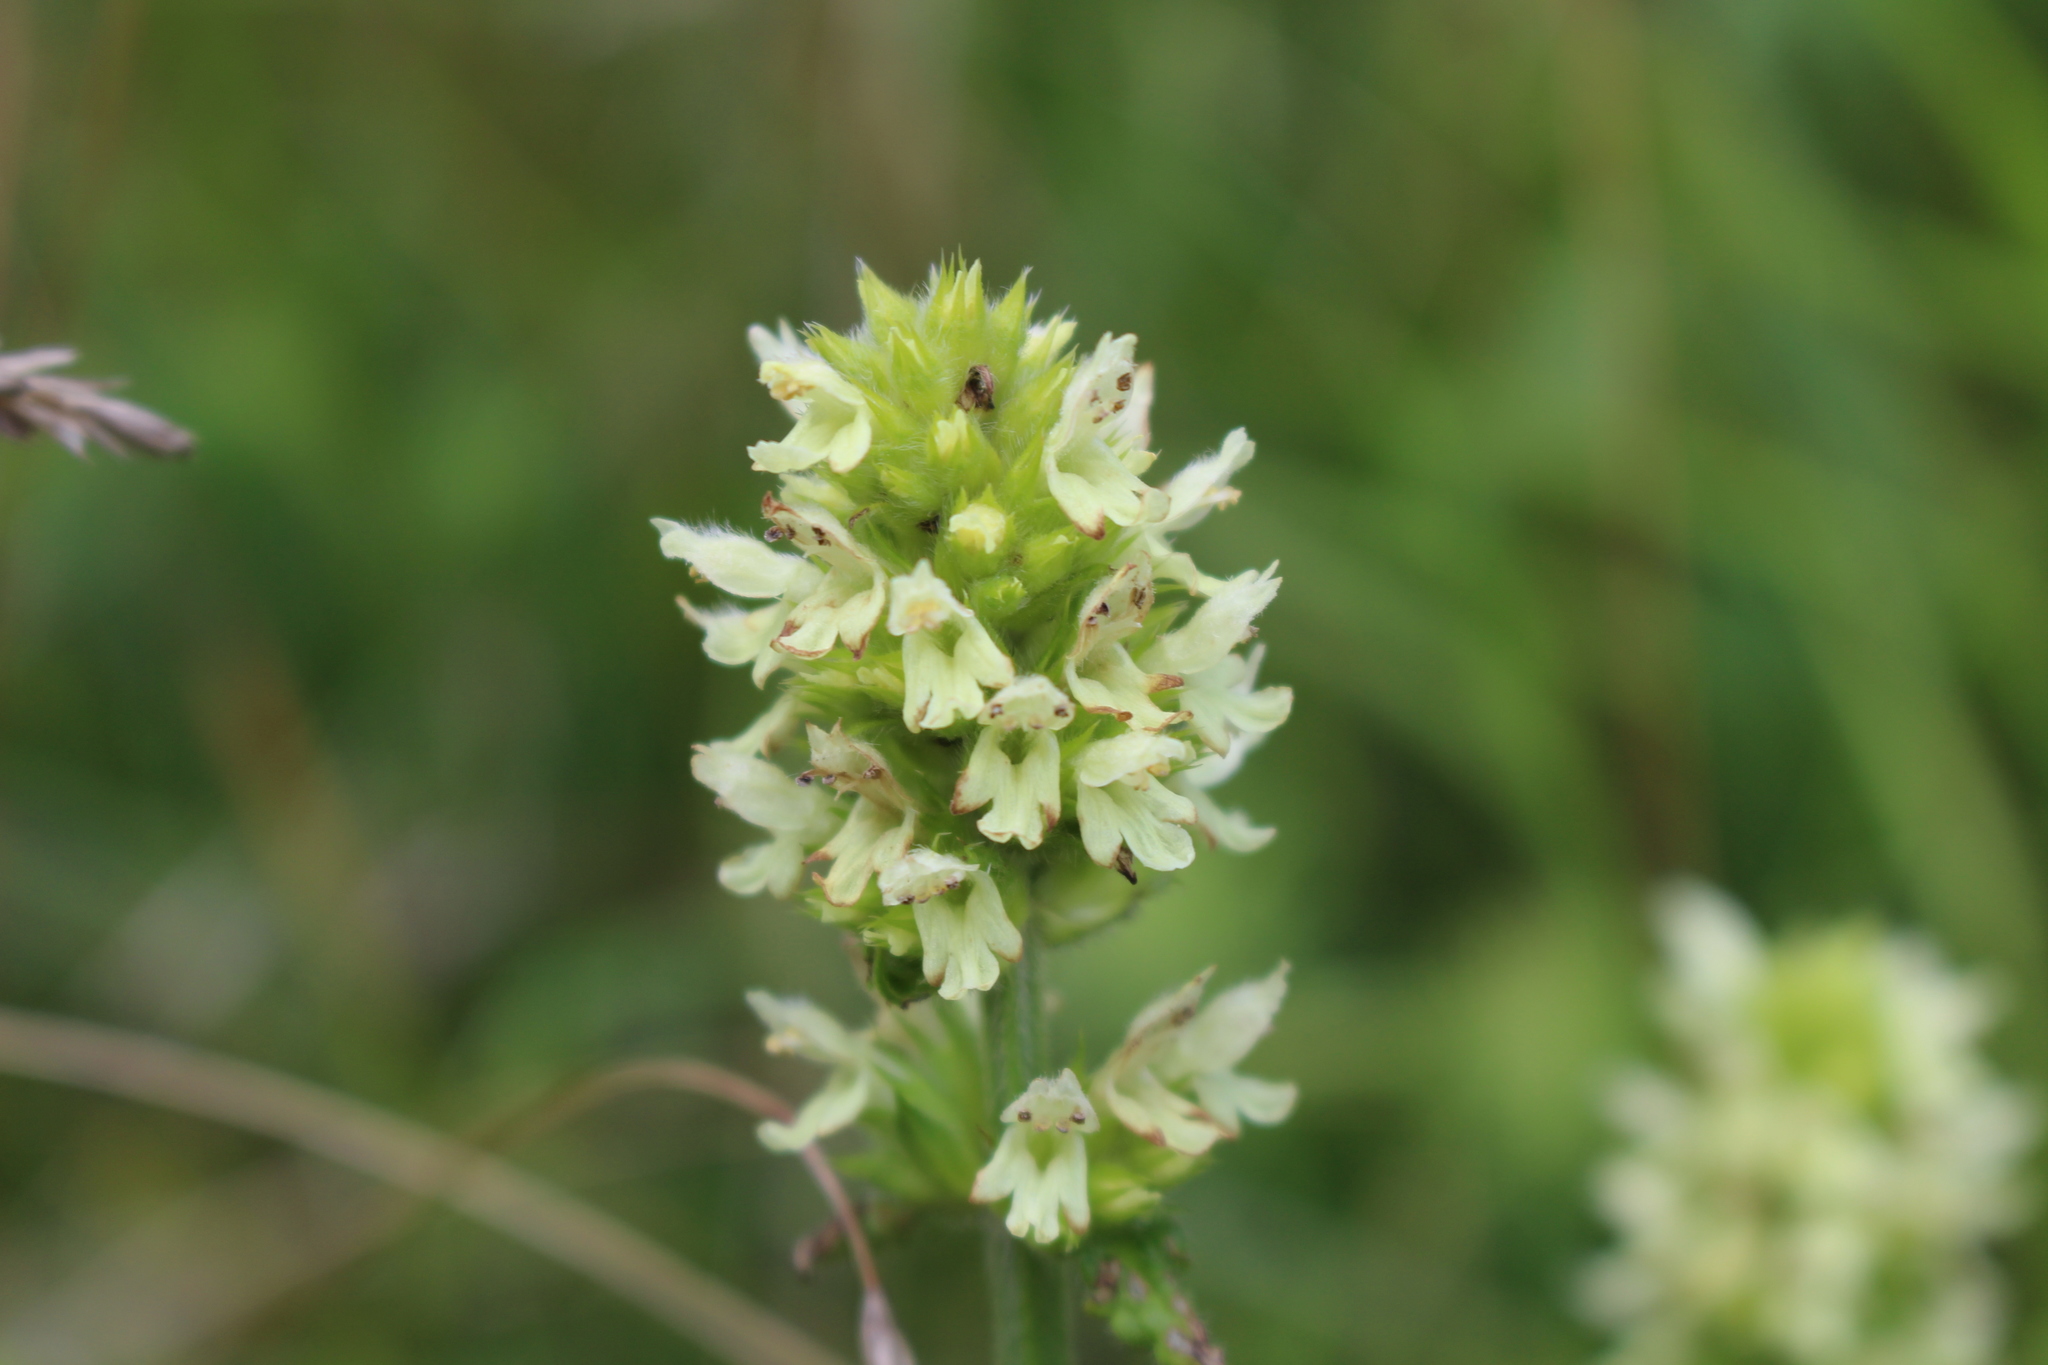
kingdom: Plantae
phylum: Tracheophyta
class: Magnoliopsida
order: Lamiales
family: Lamiaceae
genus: Betonica
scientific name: Betonica alopecuros
